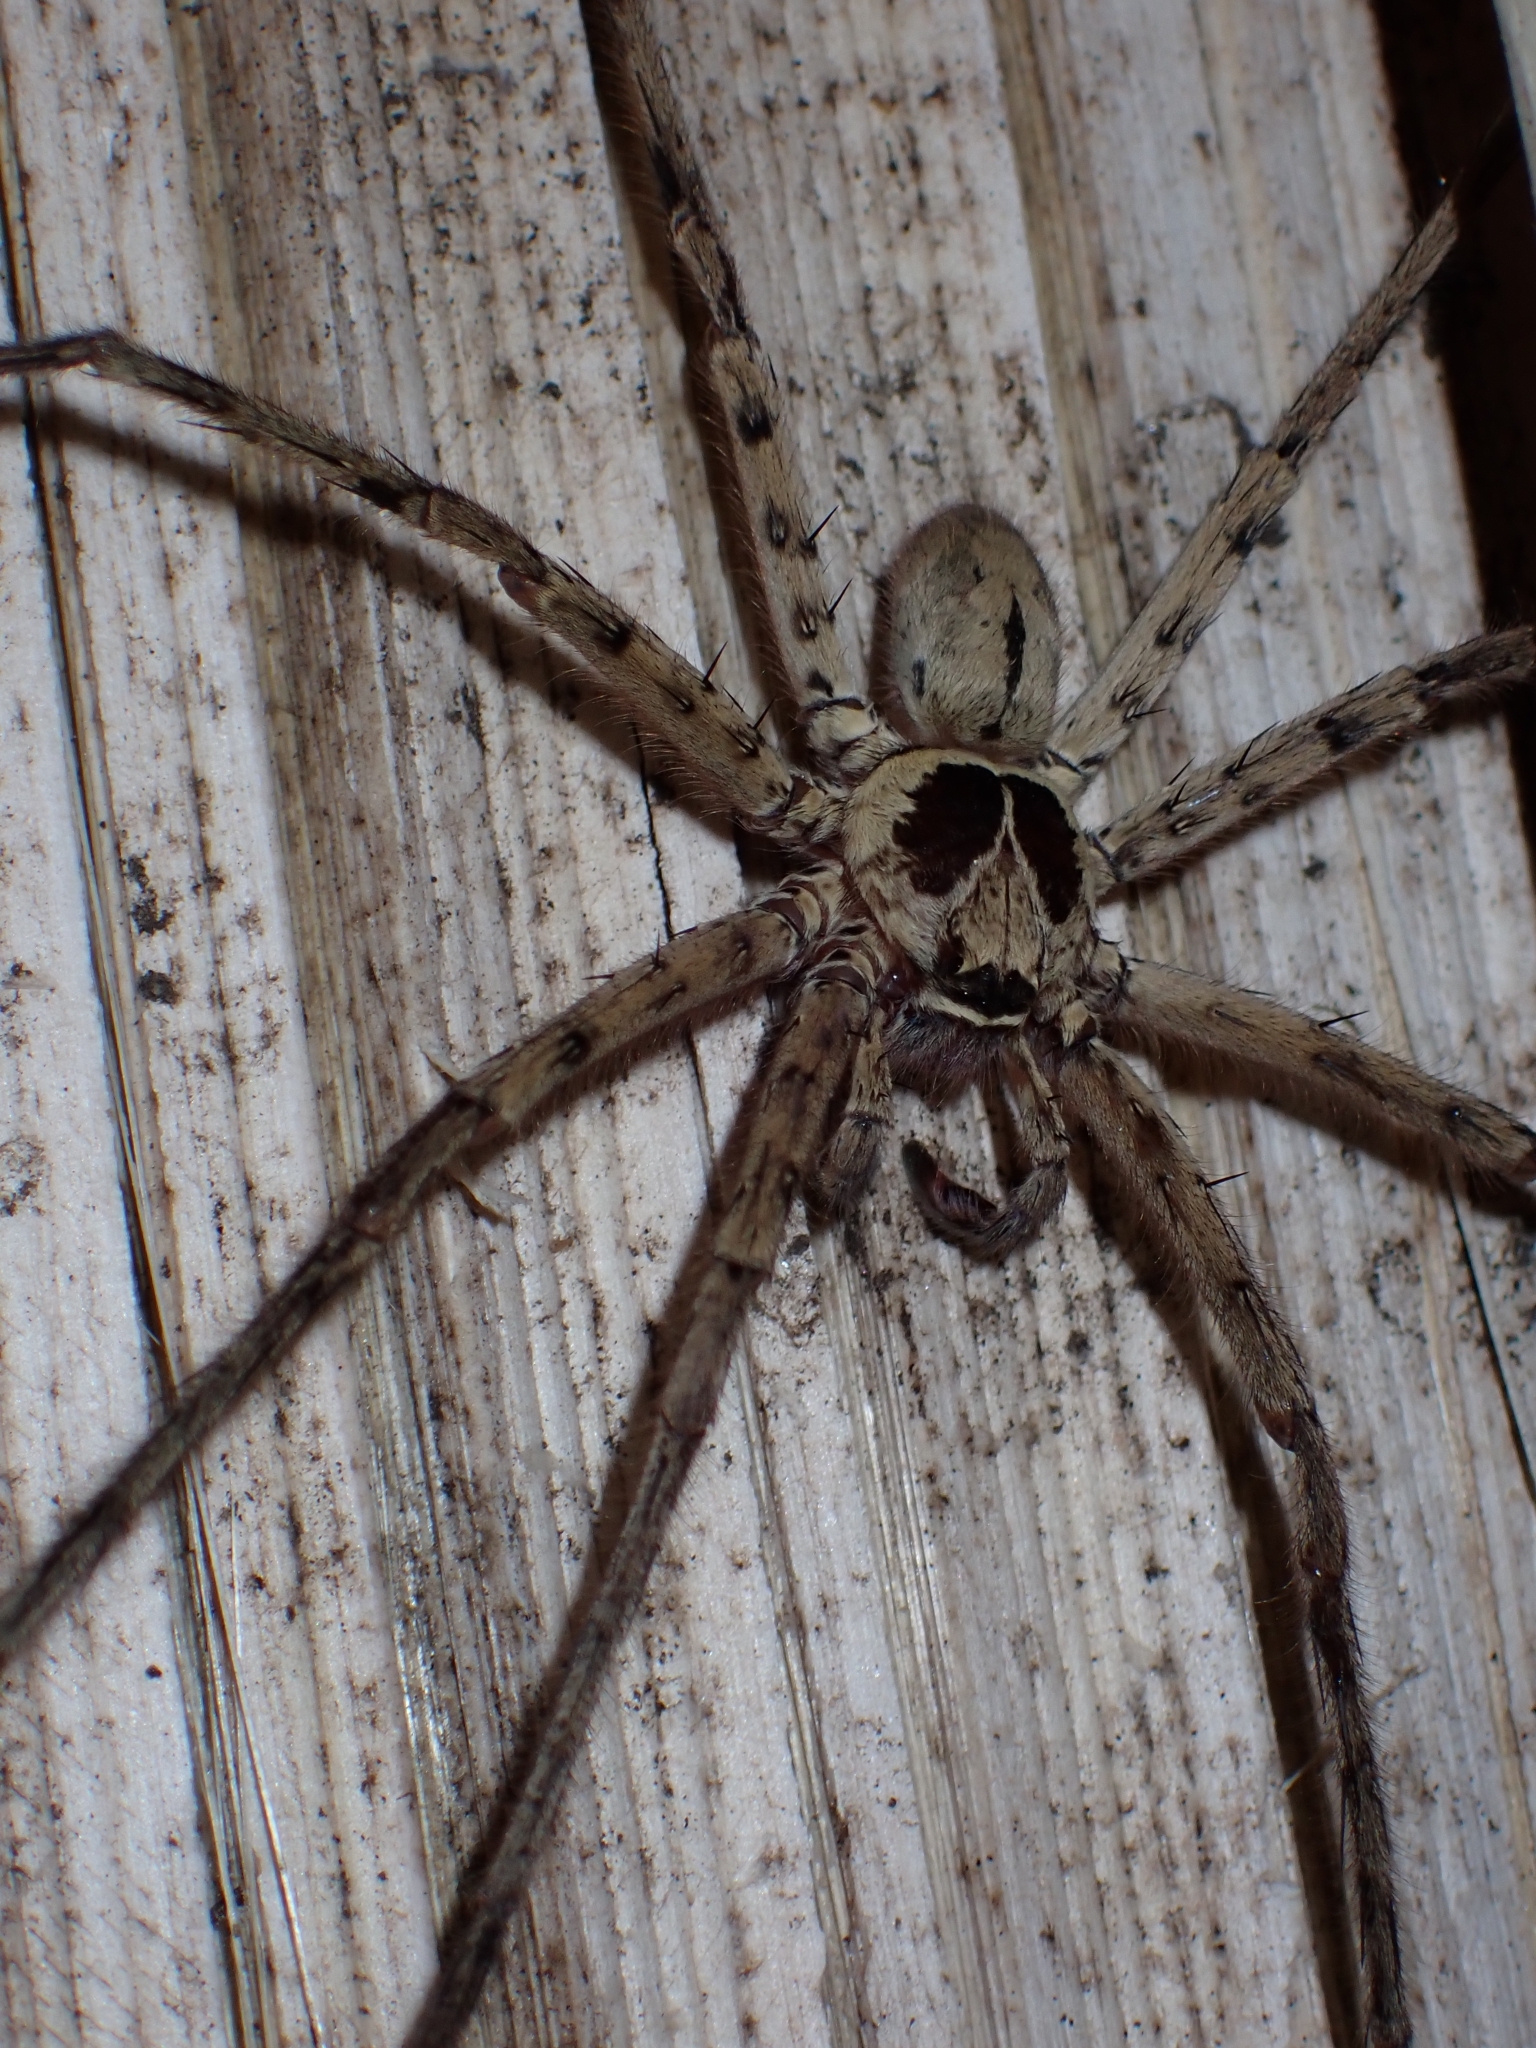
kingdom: Animalia
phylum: Arthropoda
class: Arachnida
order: Araneae
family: Sparassidae
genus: Heteropoda
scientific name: Heteropoda venatoria
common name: Huntsman spider
